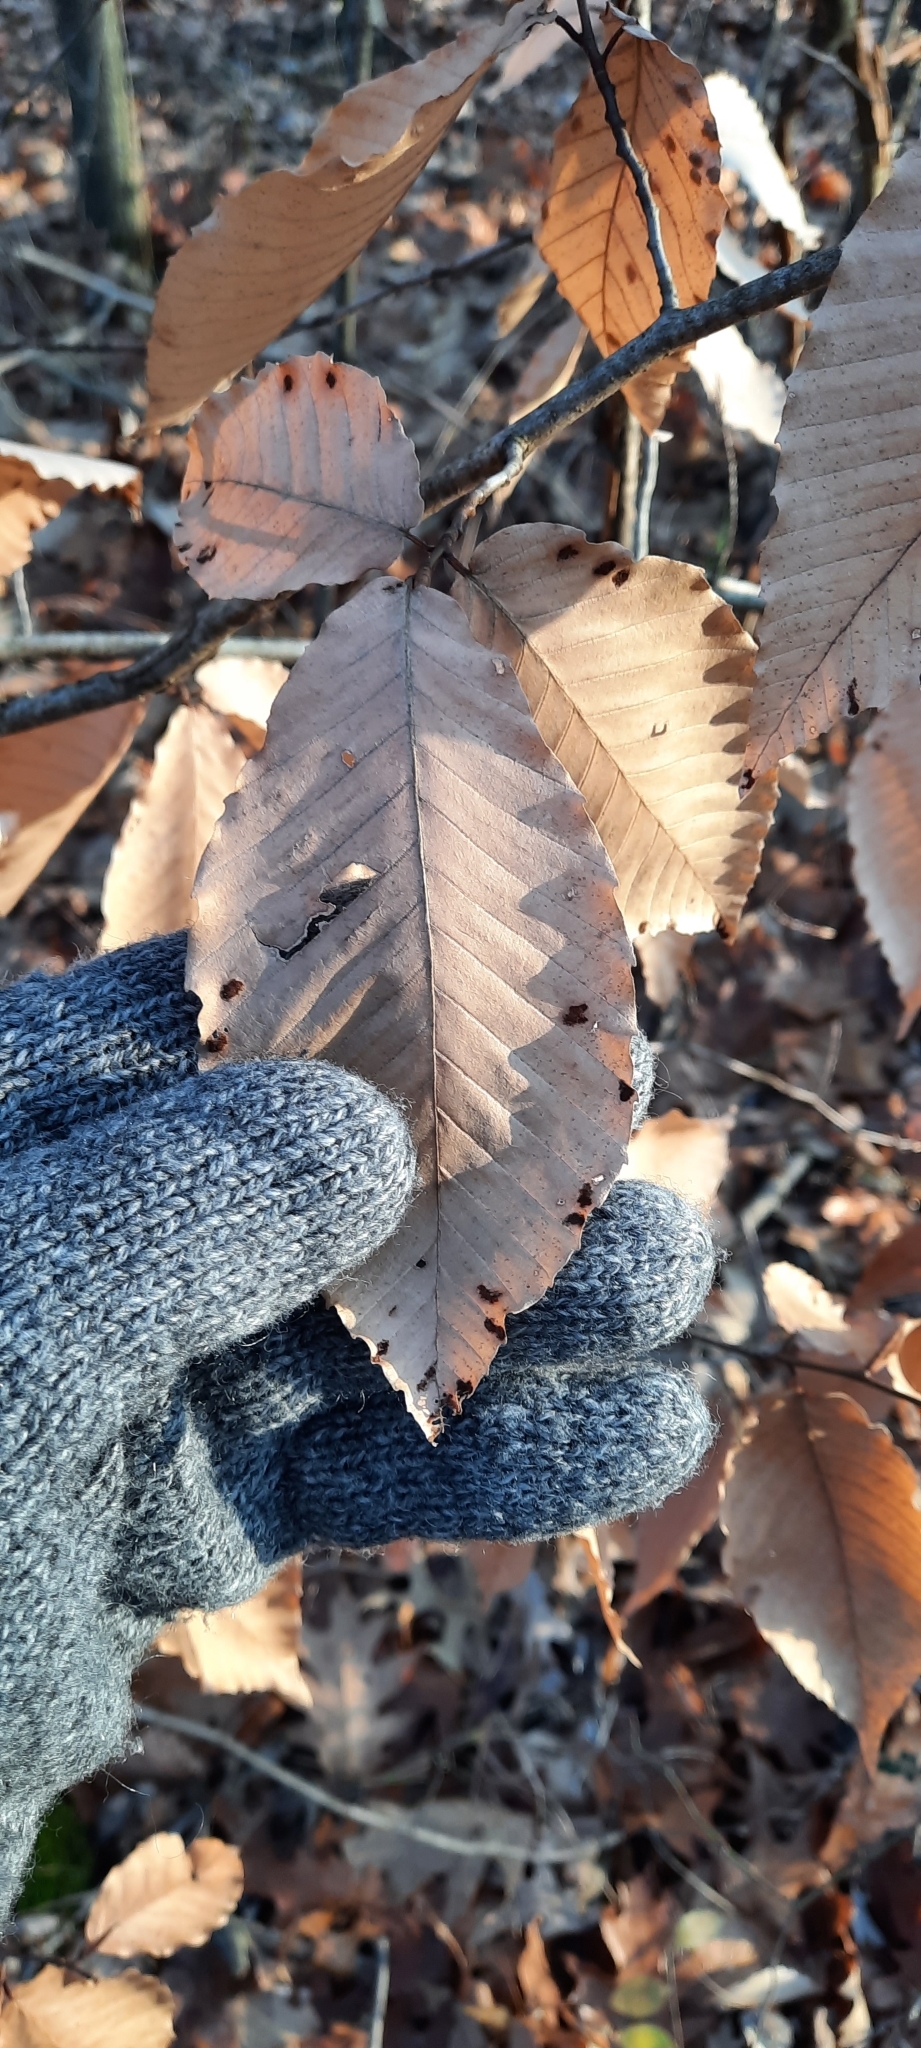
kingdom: Plantae
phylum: Tracheophyta
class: Magnoliopsida
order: Fagales
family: Fagaceae
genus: Fagus
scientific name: Fagus grandifolia
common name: American beech
